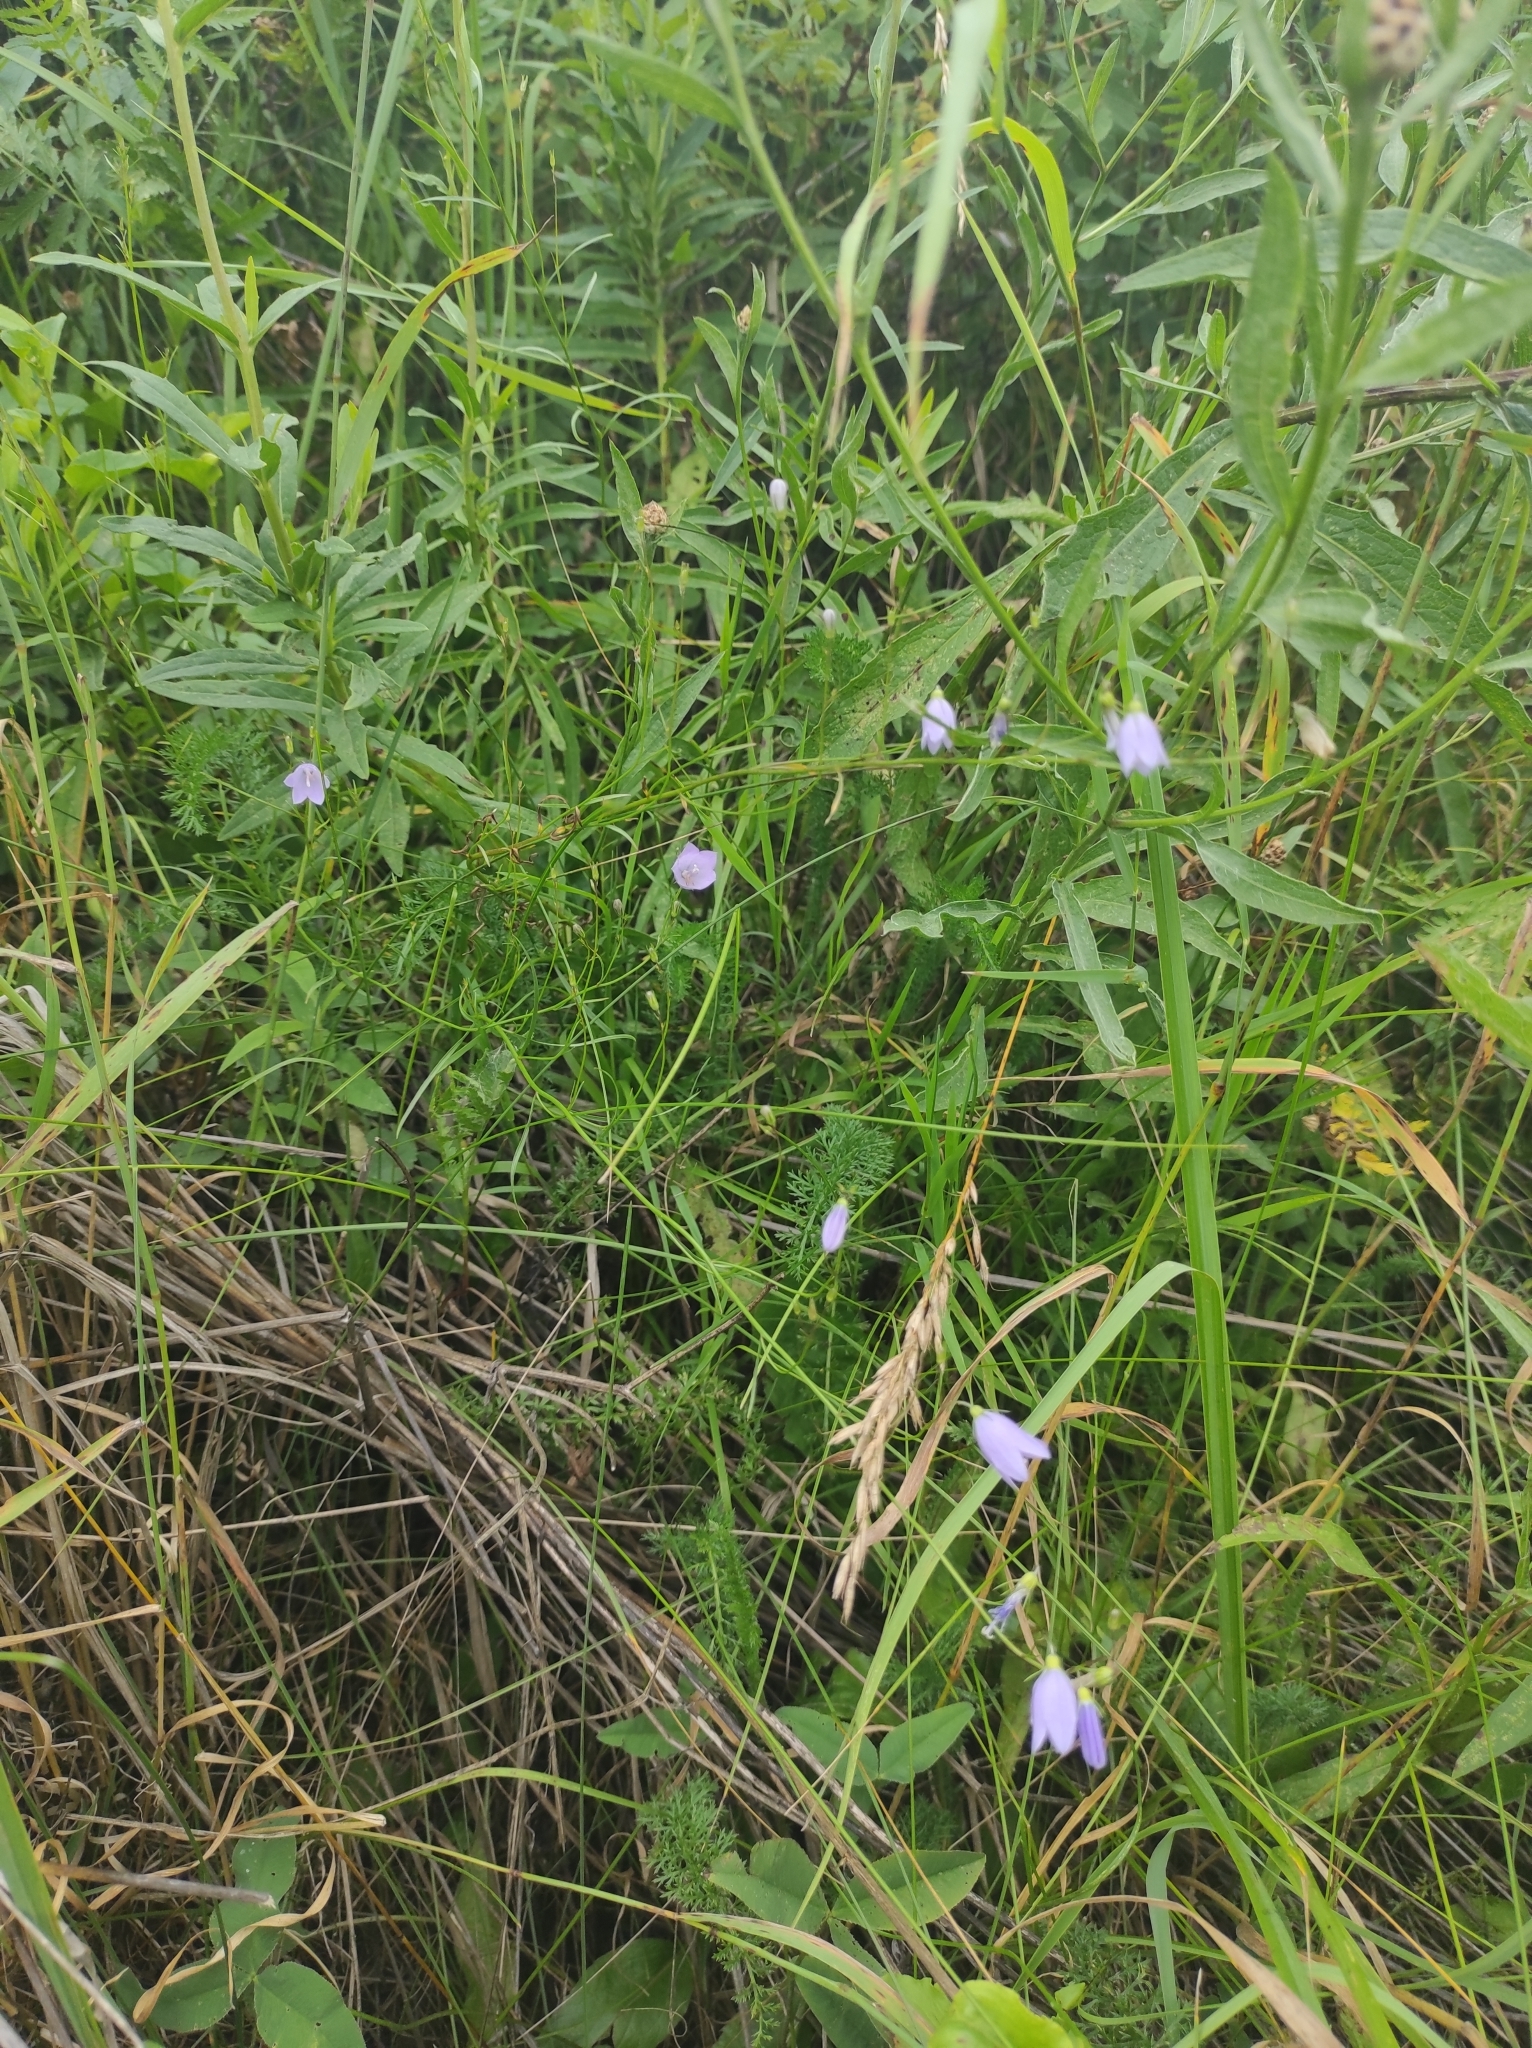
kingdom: Plantae
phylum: Tracheophyta
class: Magnoliopsida
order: Asterales
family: Campanulaceae
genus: Campanula
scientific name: Campanula rotundifolia
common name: Harebell
